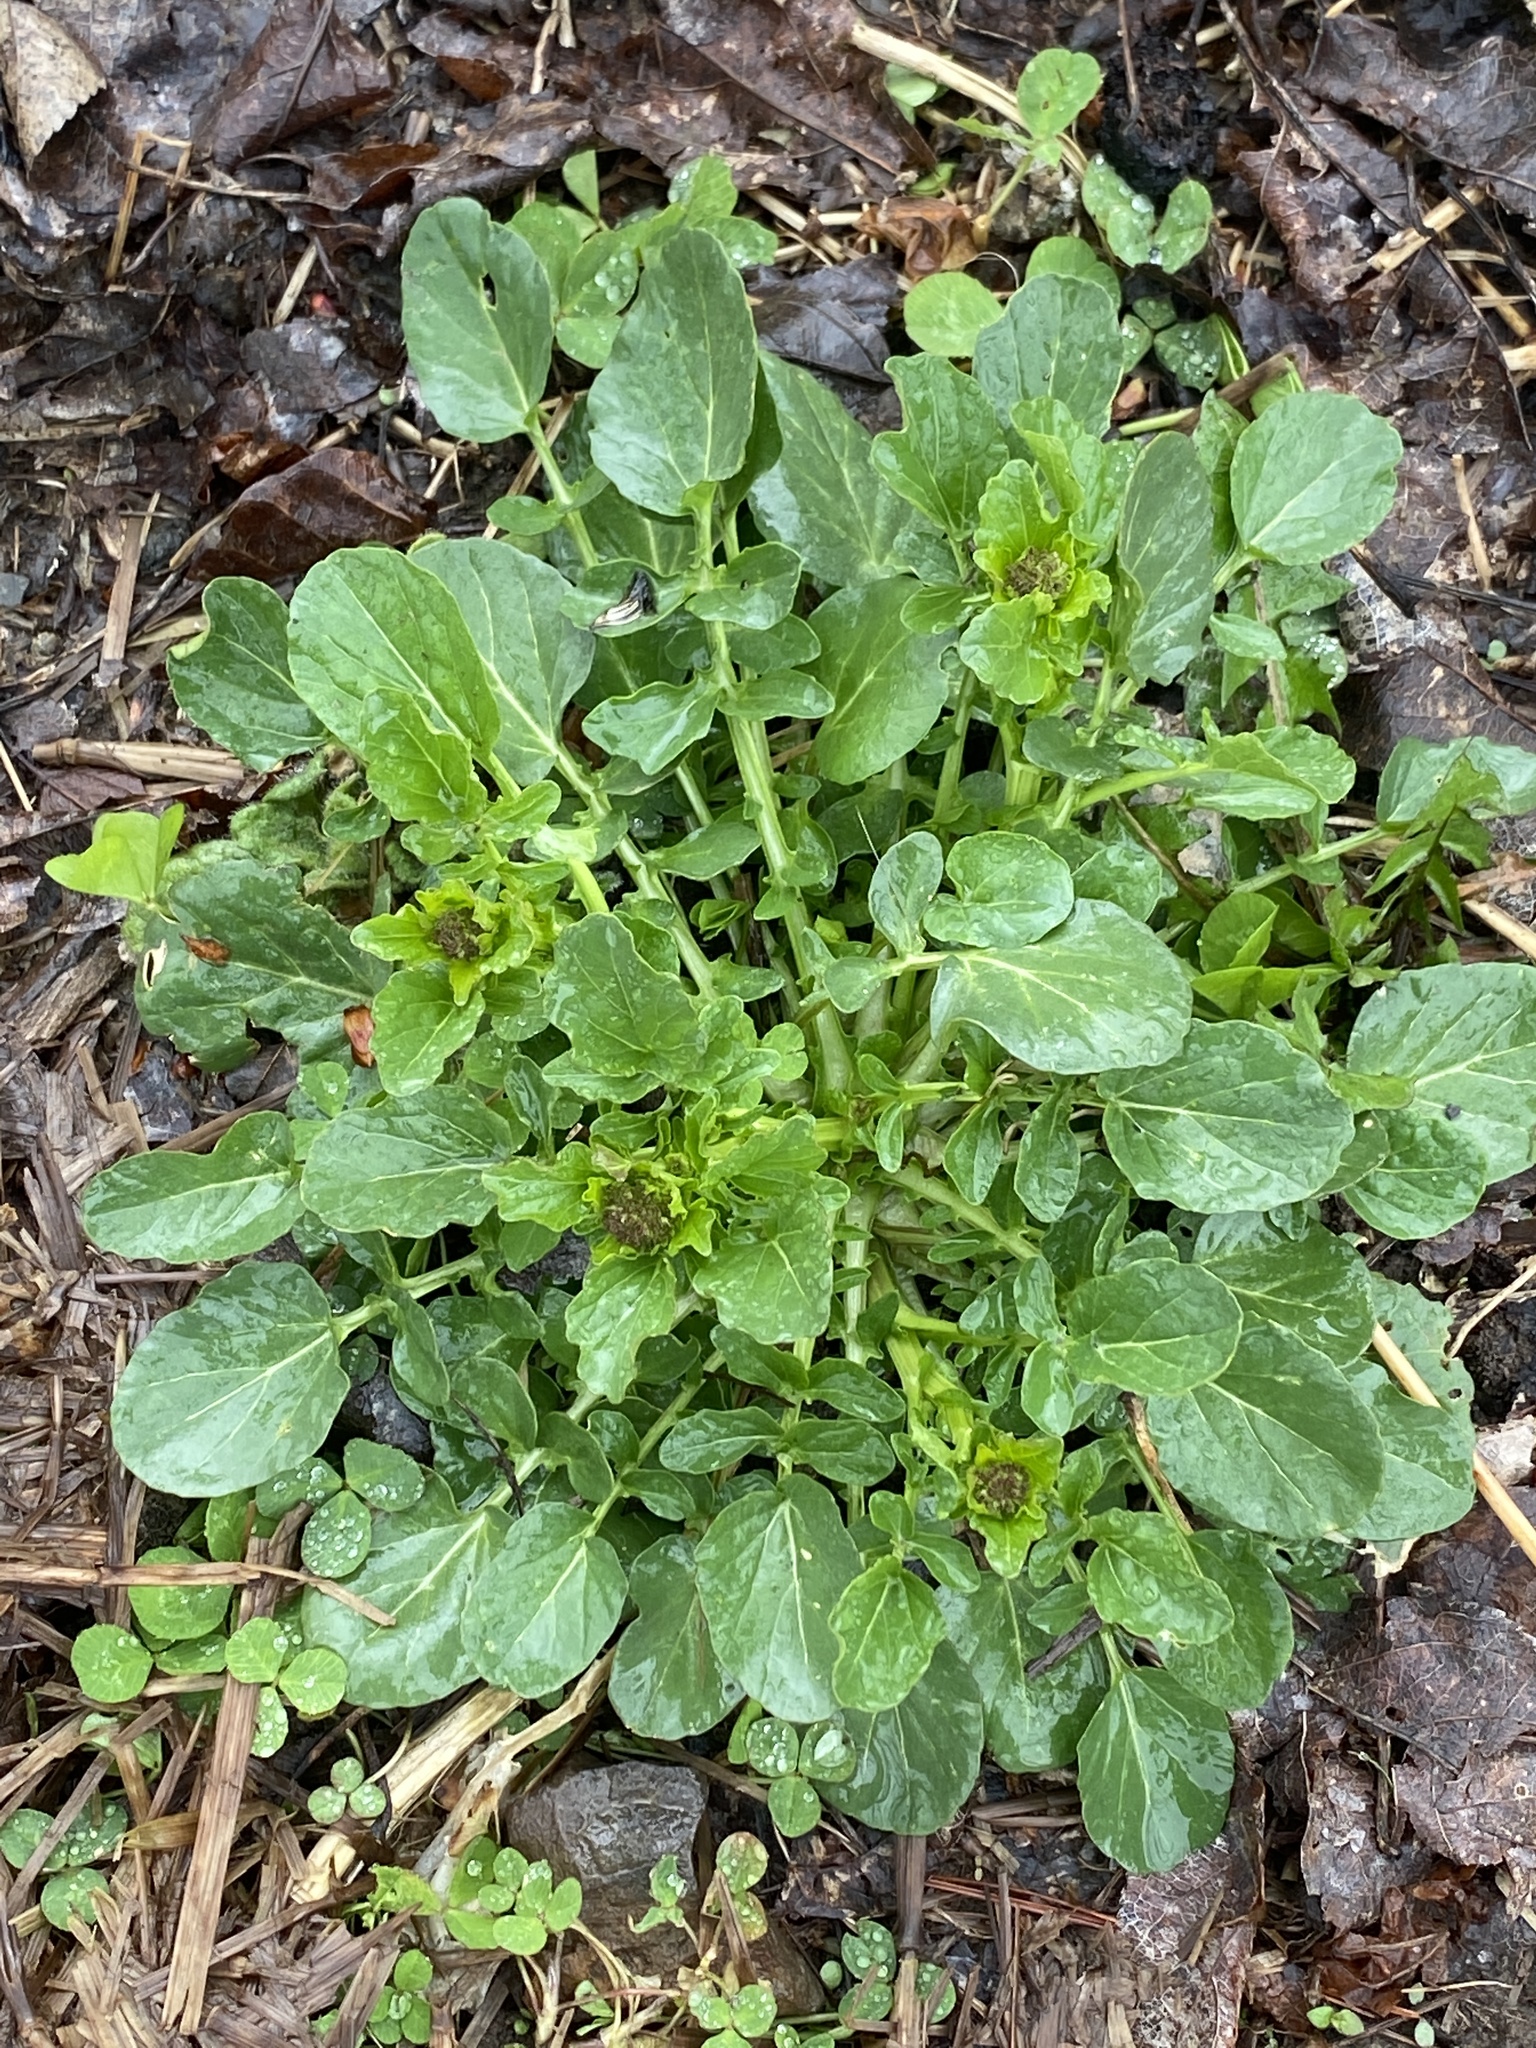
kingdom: Plantae
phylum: Tracheophyta
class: Magnoliopsida
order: Brassicales
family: Brassicaceae
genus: Barbarea
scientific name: Barbarea vulgaris
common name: Cressy-greens
